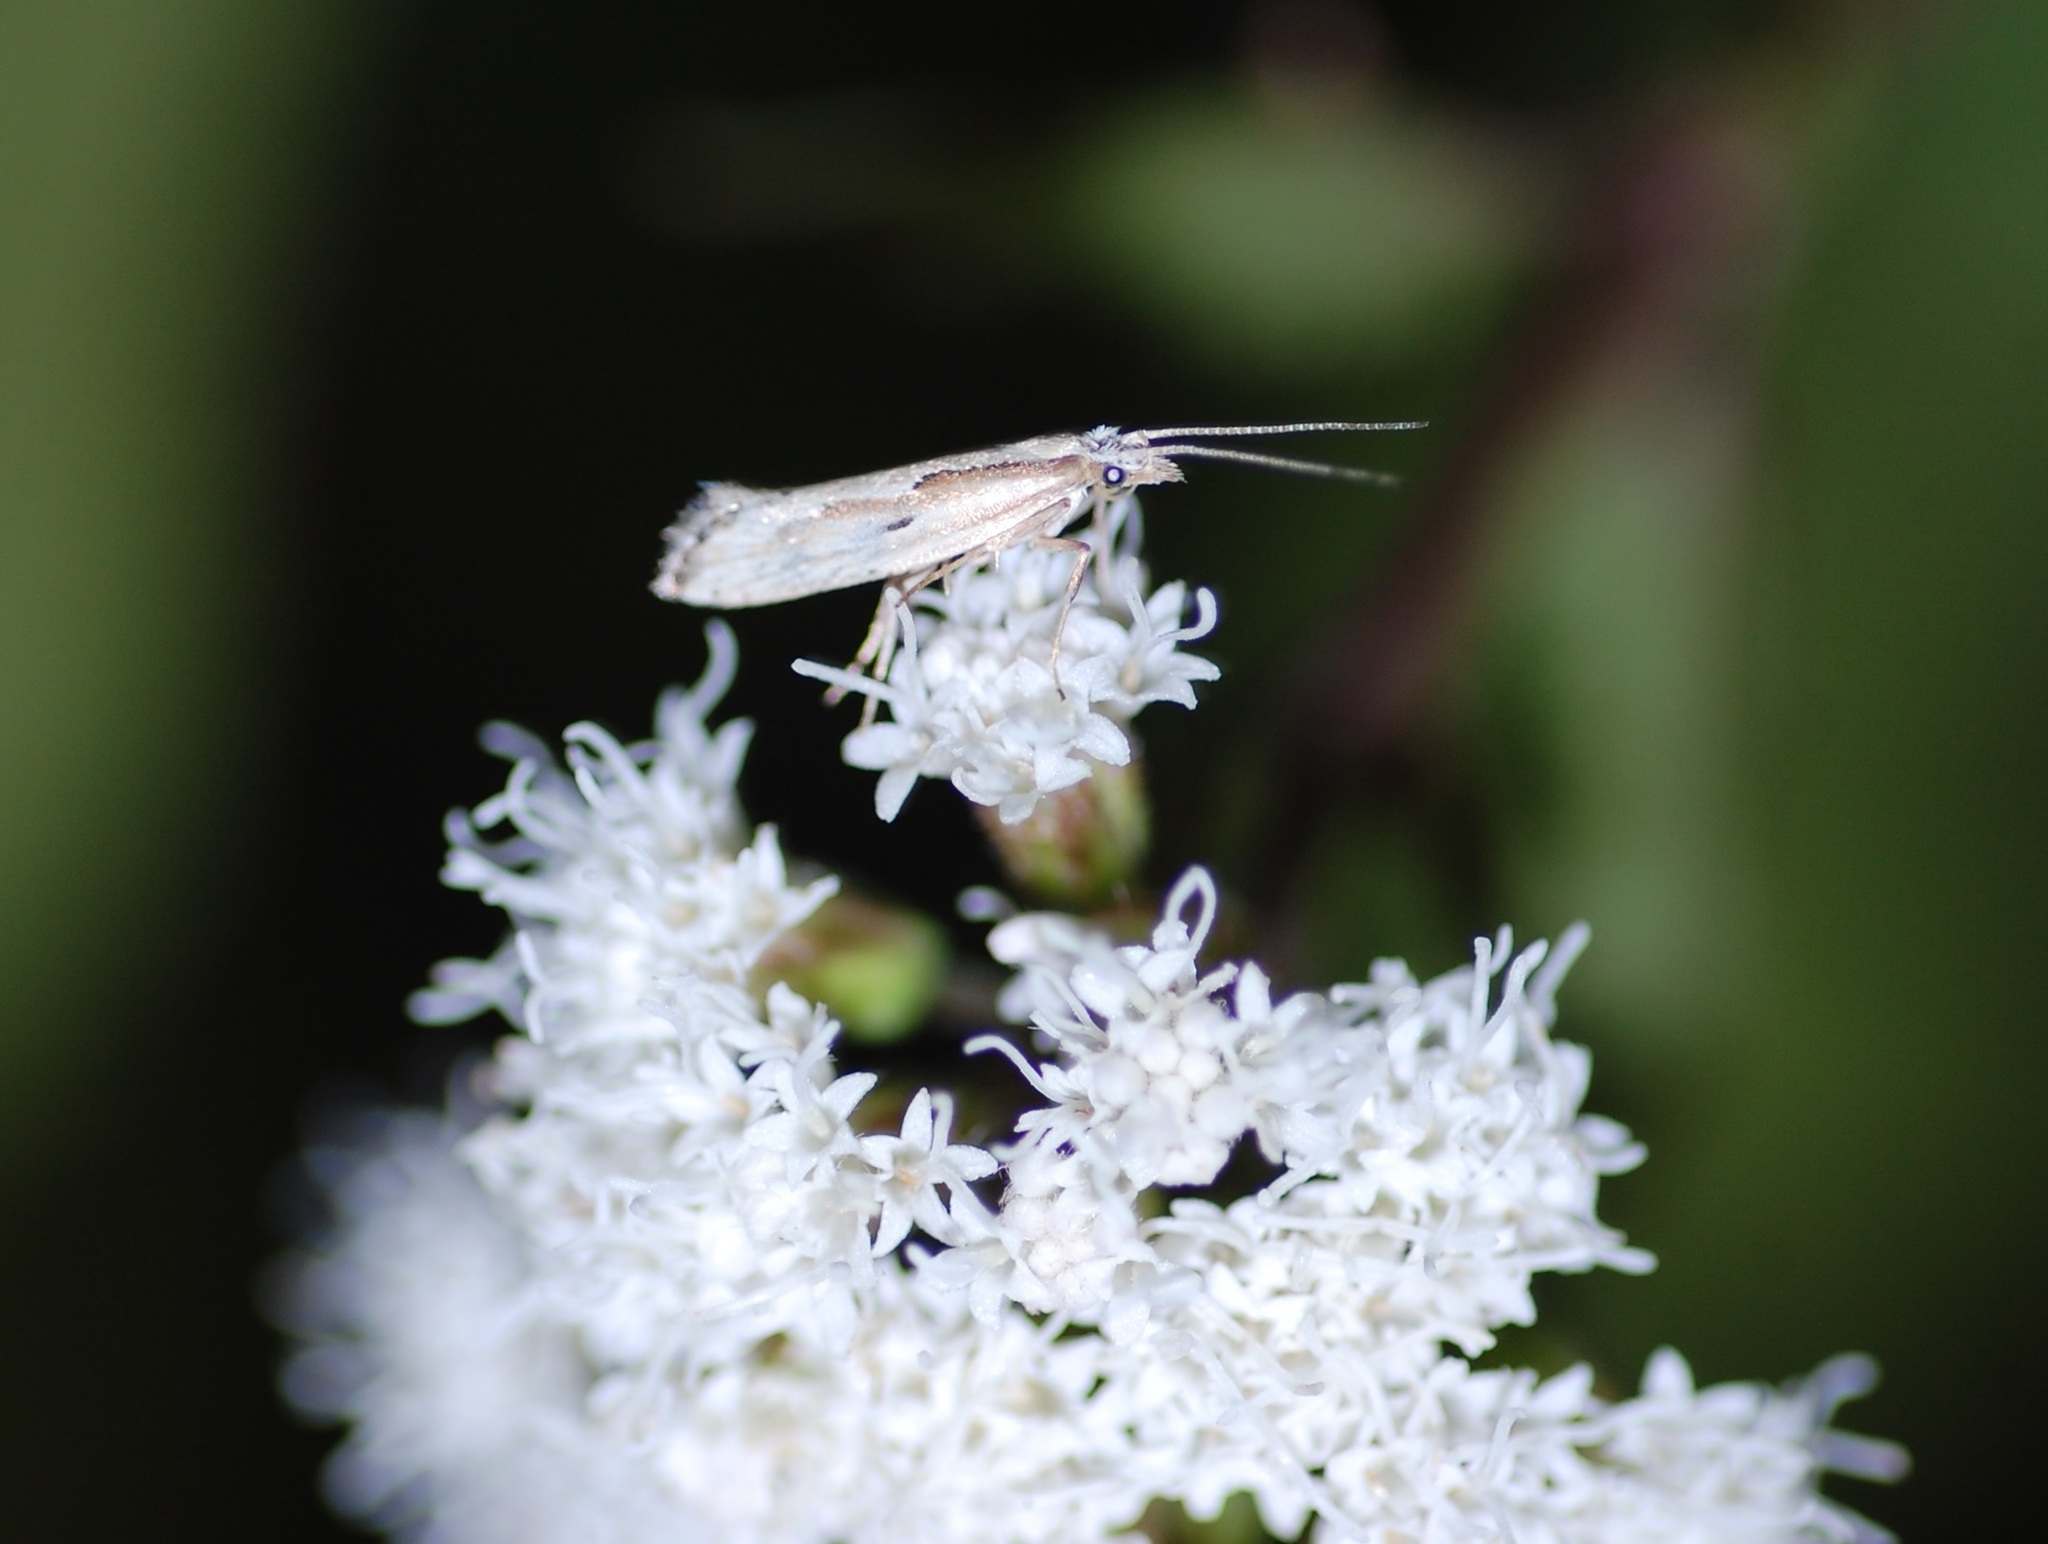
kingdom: Animalia
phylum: Arthropoda
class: Insecta
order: Lepidoptera
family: Plutellidae
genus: Plutella
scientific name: Plutella porrectella
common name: Dame's rocket moth
